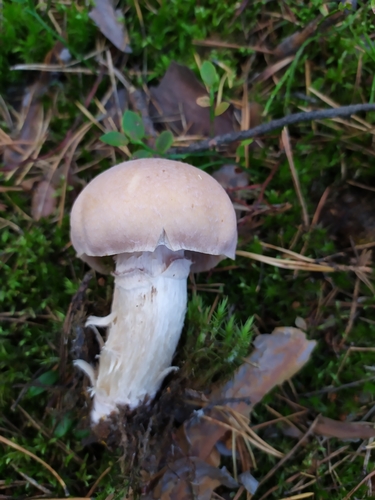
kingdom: Fungi
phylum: Basidiomycota
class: Agaricomycetes
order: Agaricales
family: Cortinariaceae
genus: Cortinarius
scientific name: Cortinarius caperatus
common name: The gypsy
